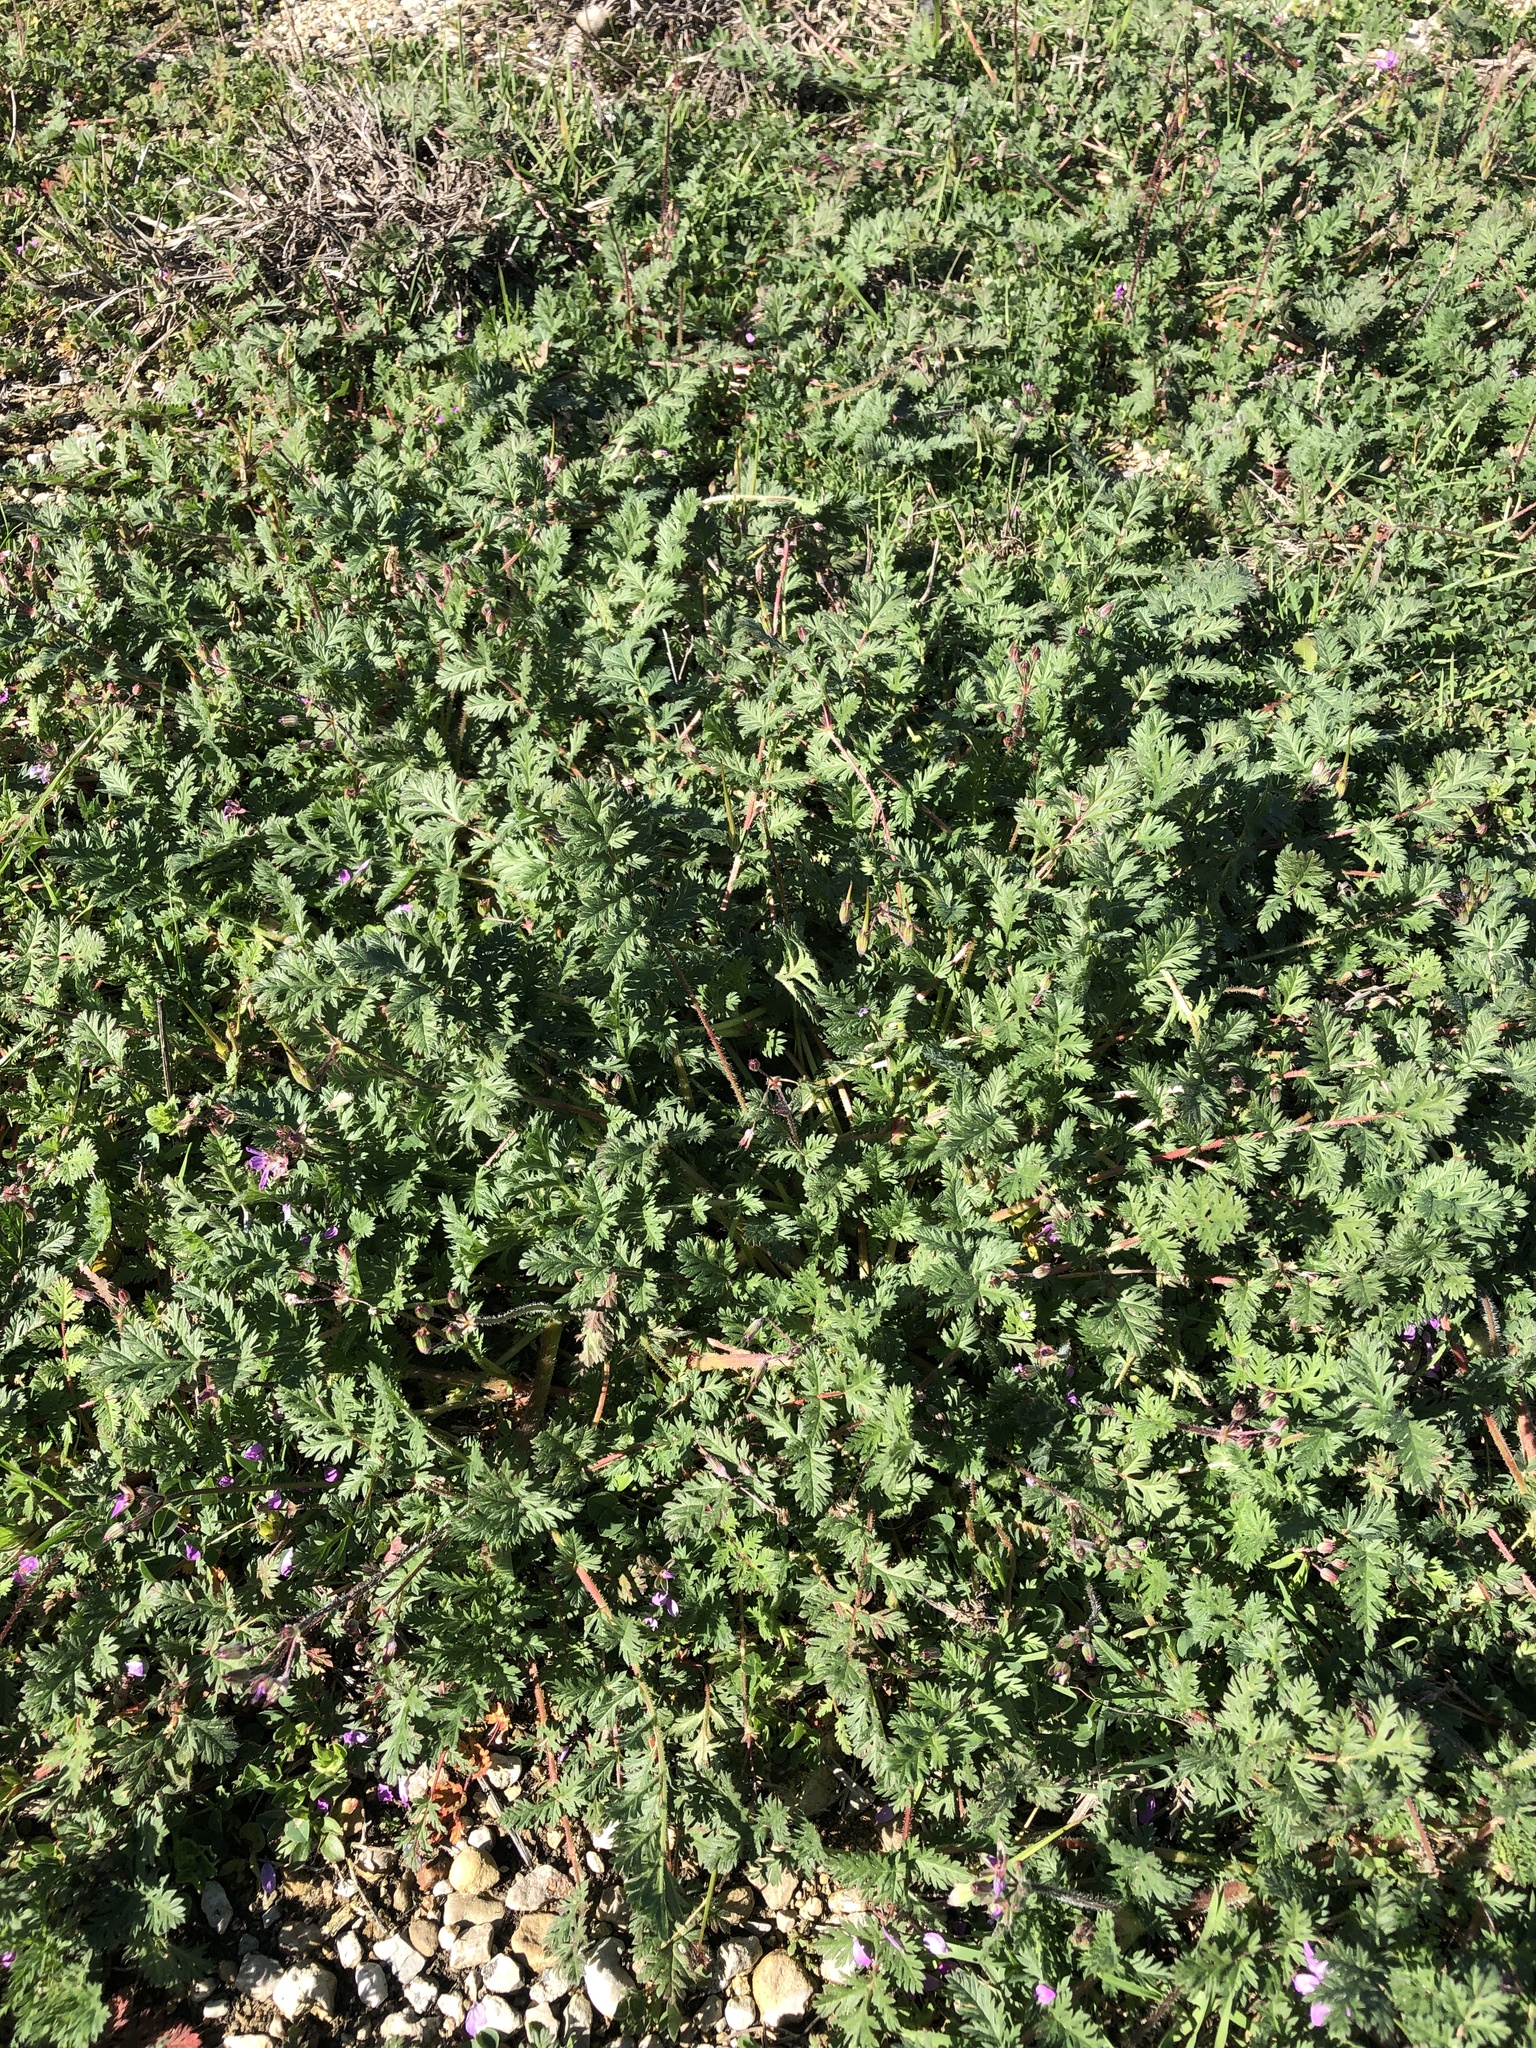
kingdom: Plantae
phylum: Tracheophyta
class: Magnoliopsida
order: Geraniales
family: Geraniaceae
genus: Erodium
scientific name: Erodium cicutarium
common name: Common stork's-bill
